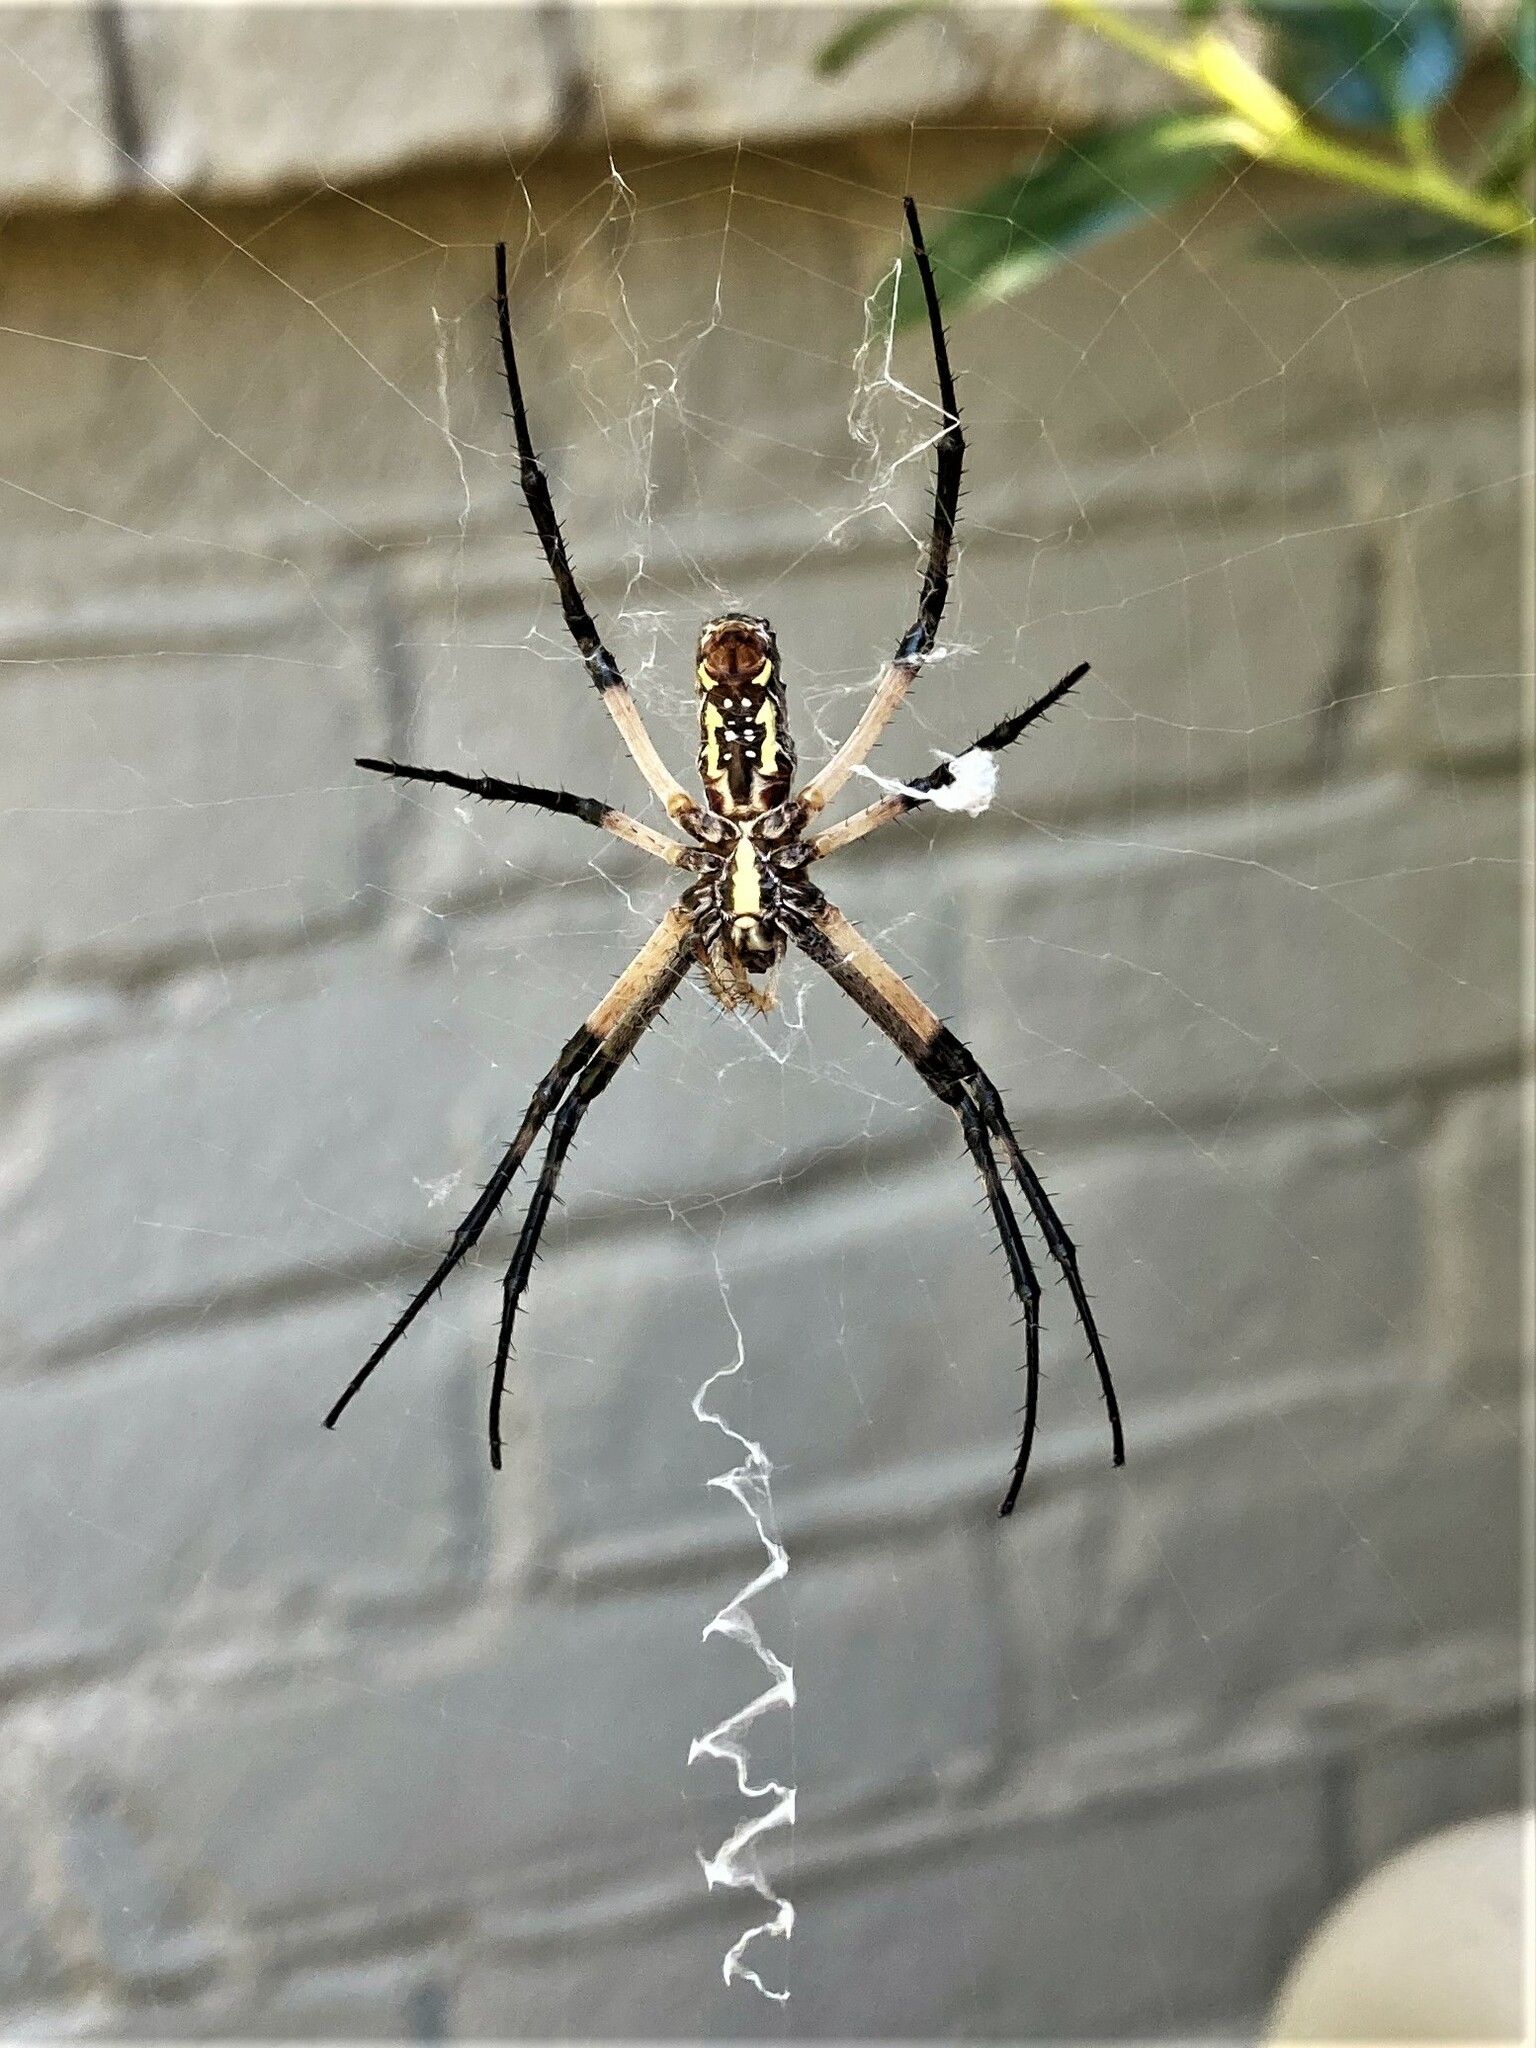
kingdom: Animalia
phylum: Arthropoda
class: Arachnida
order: Araneae
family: Araneidae
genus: Argiope
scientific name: Argiope aurantia
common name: Orb weavers
